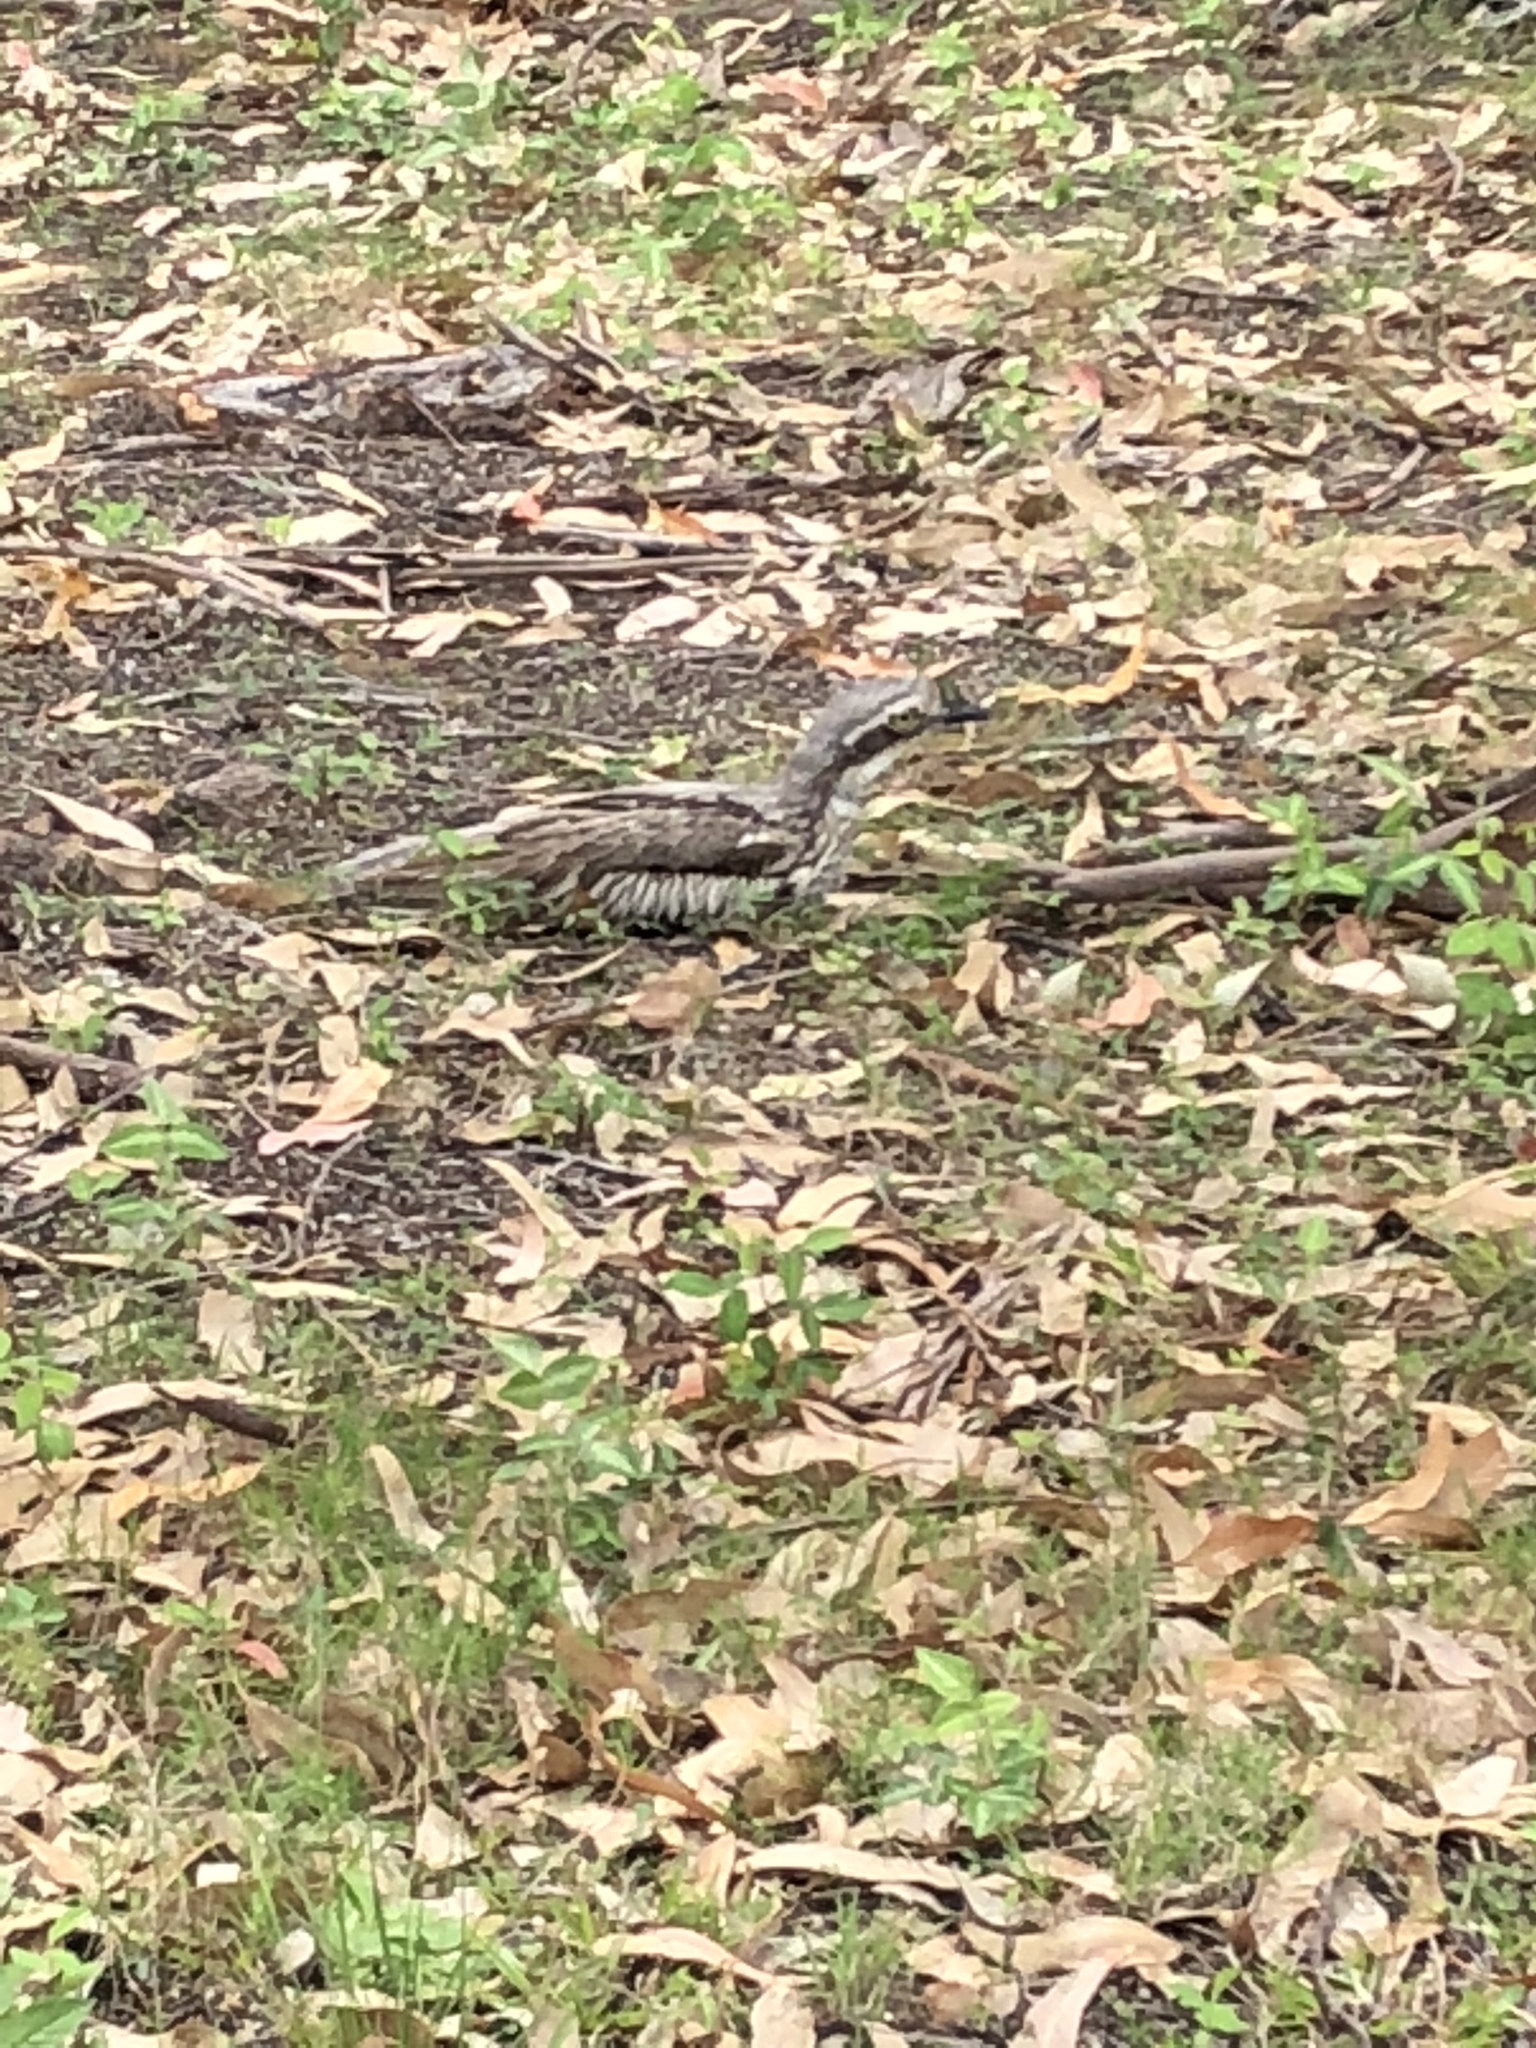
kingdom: Animalia
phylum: Chordata
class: Aves
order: Charadriiformes
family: Burhinidae
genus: Burhinus
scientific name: Burhinus grallarius
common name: Bush stone-curlew
